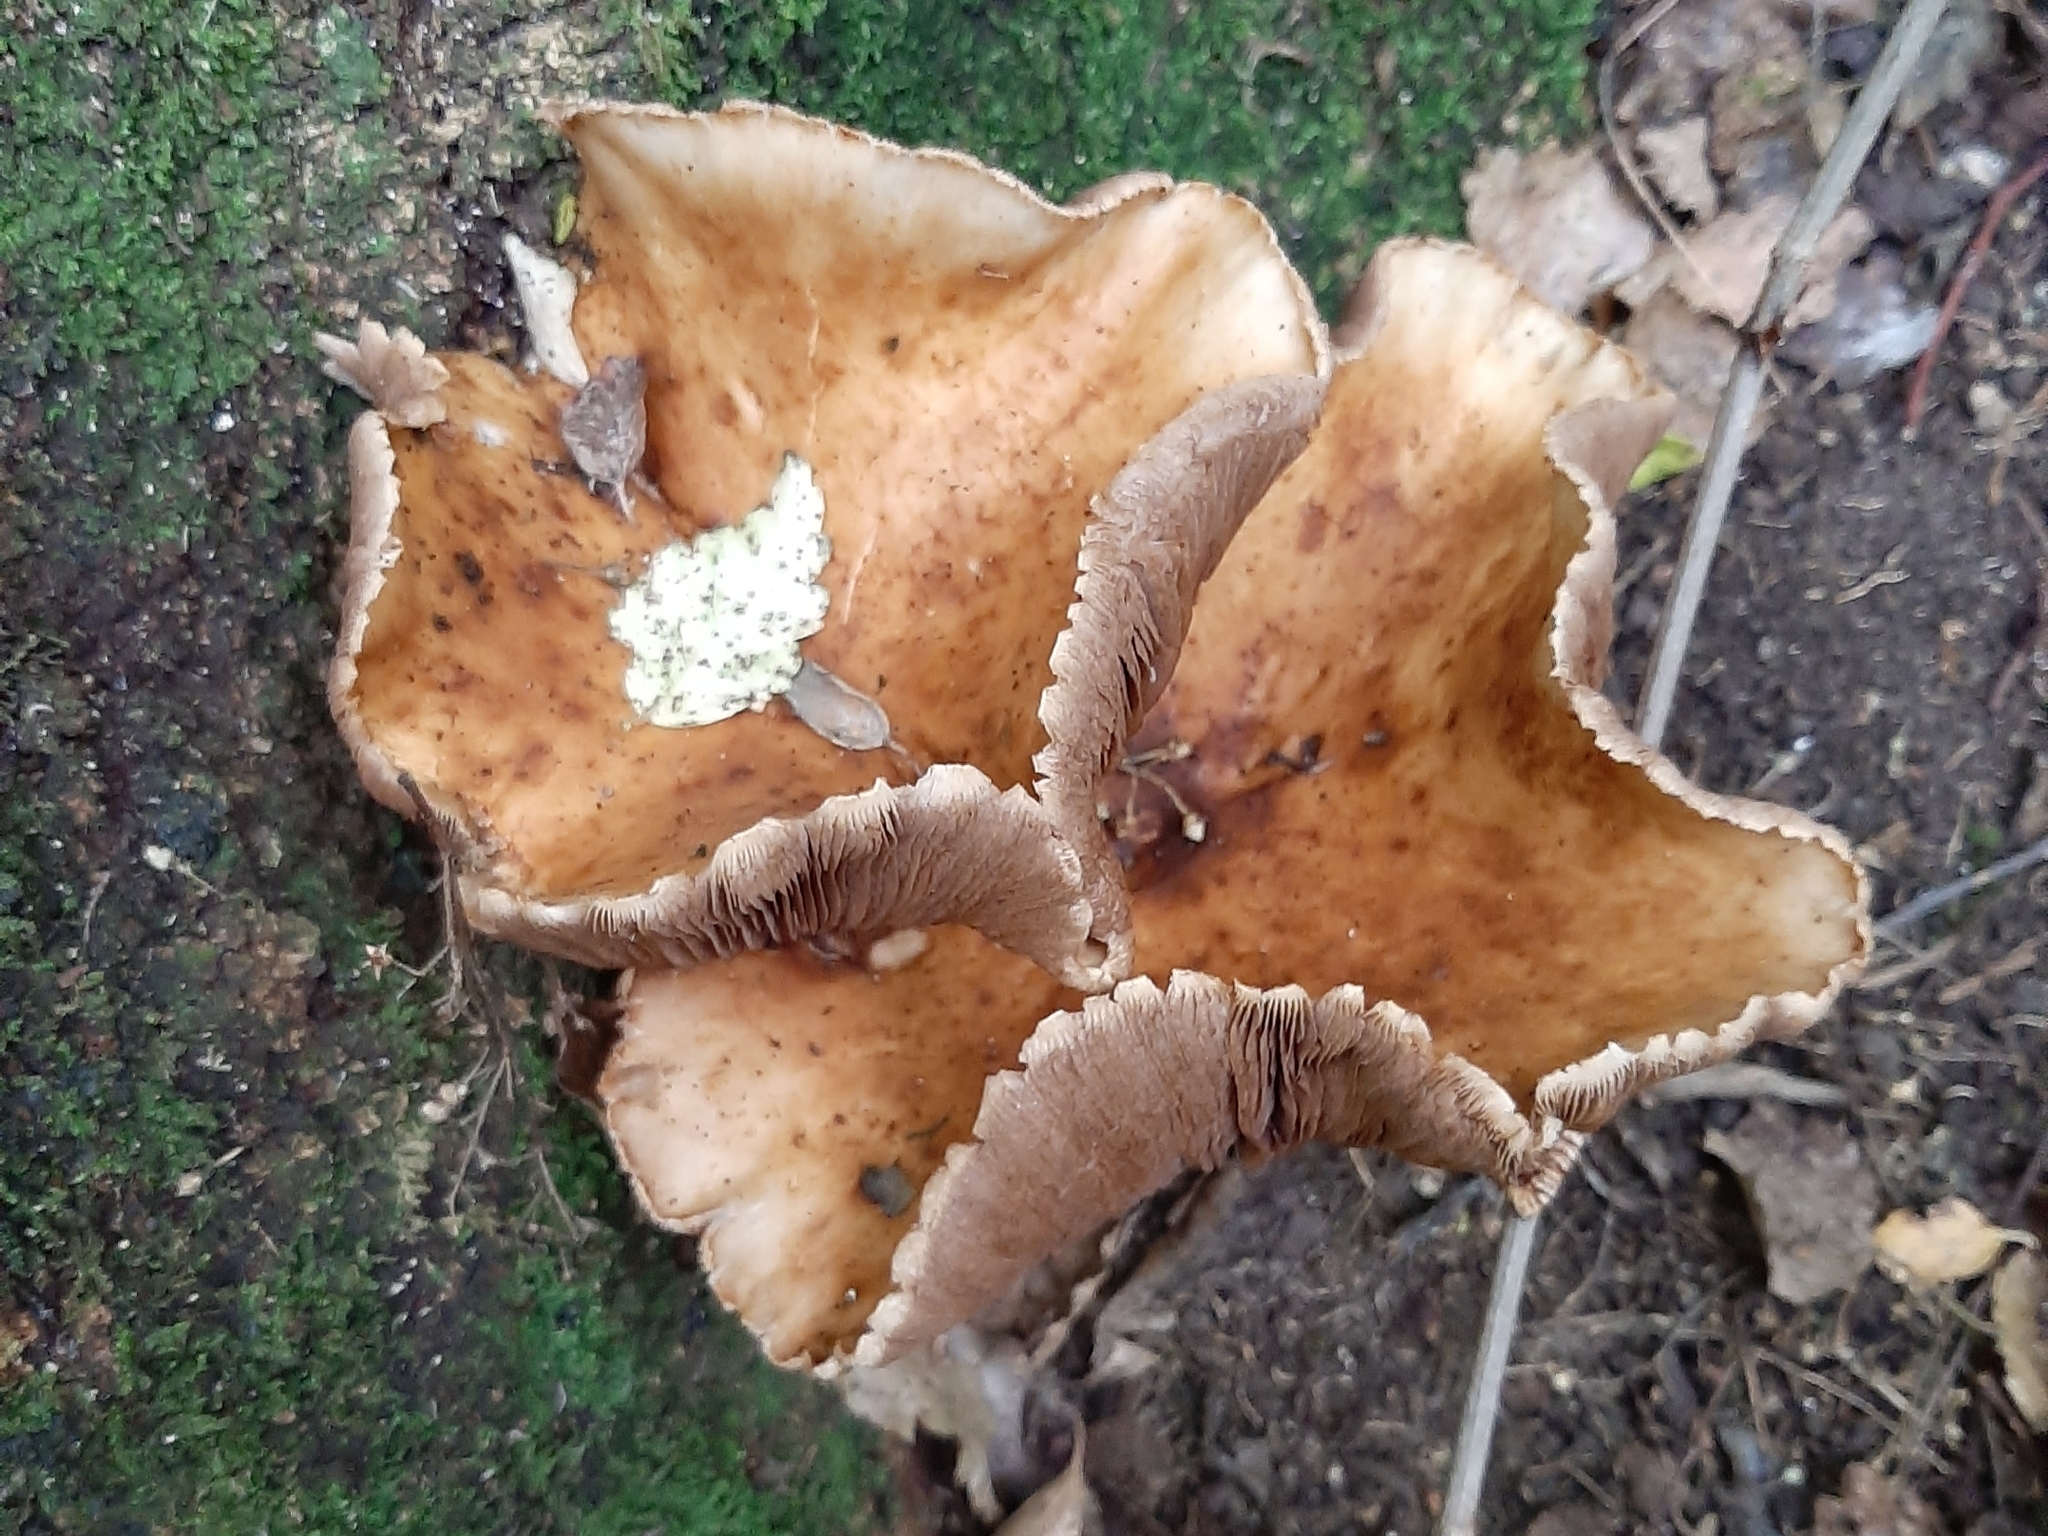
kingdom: Fungi
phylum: Basidiomycota
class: Agaricomycetes
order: Agaricales
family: Tubariaceae
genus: Cyclocybe
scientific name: Cyclocybe parasitica
